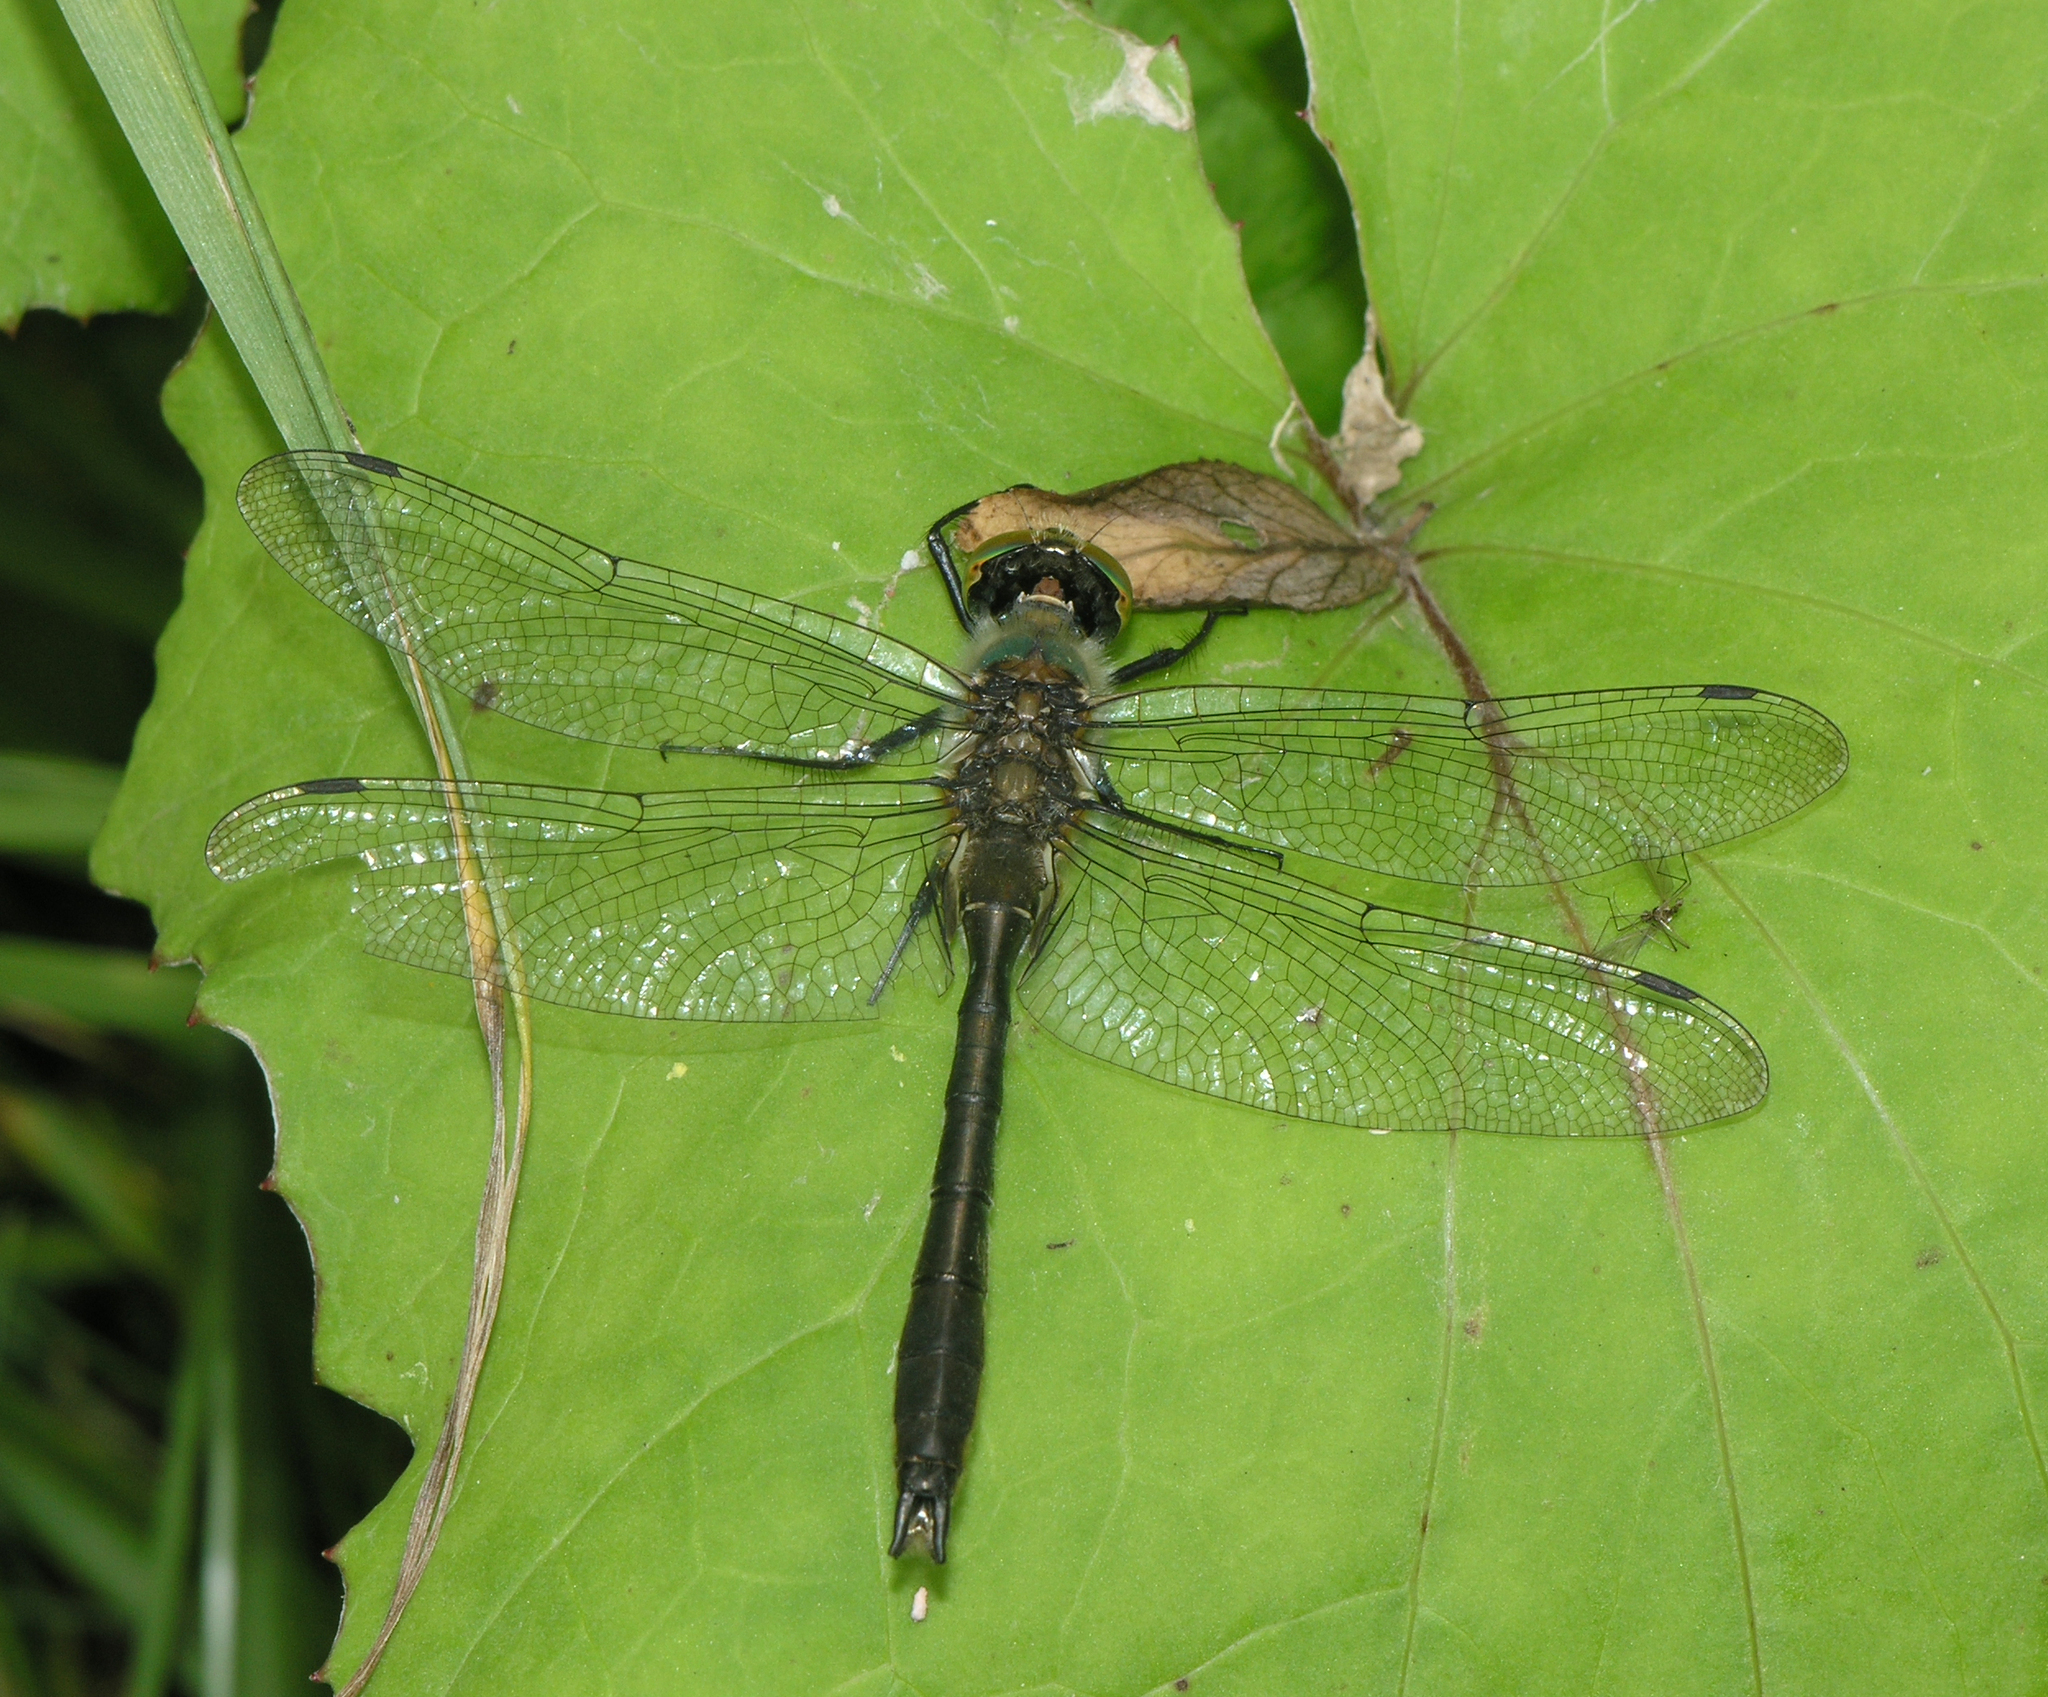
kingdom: Animalia
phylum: Arthropoda
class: Insecta
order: Odonata
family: Corduliidae
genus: Cordulia
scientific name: Cordulia aenea
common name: Downy emerald
